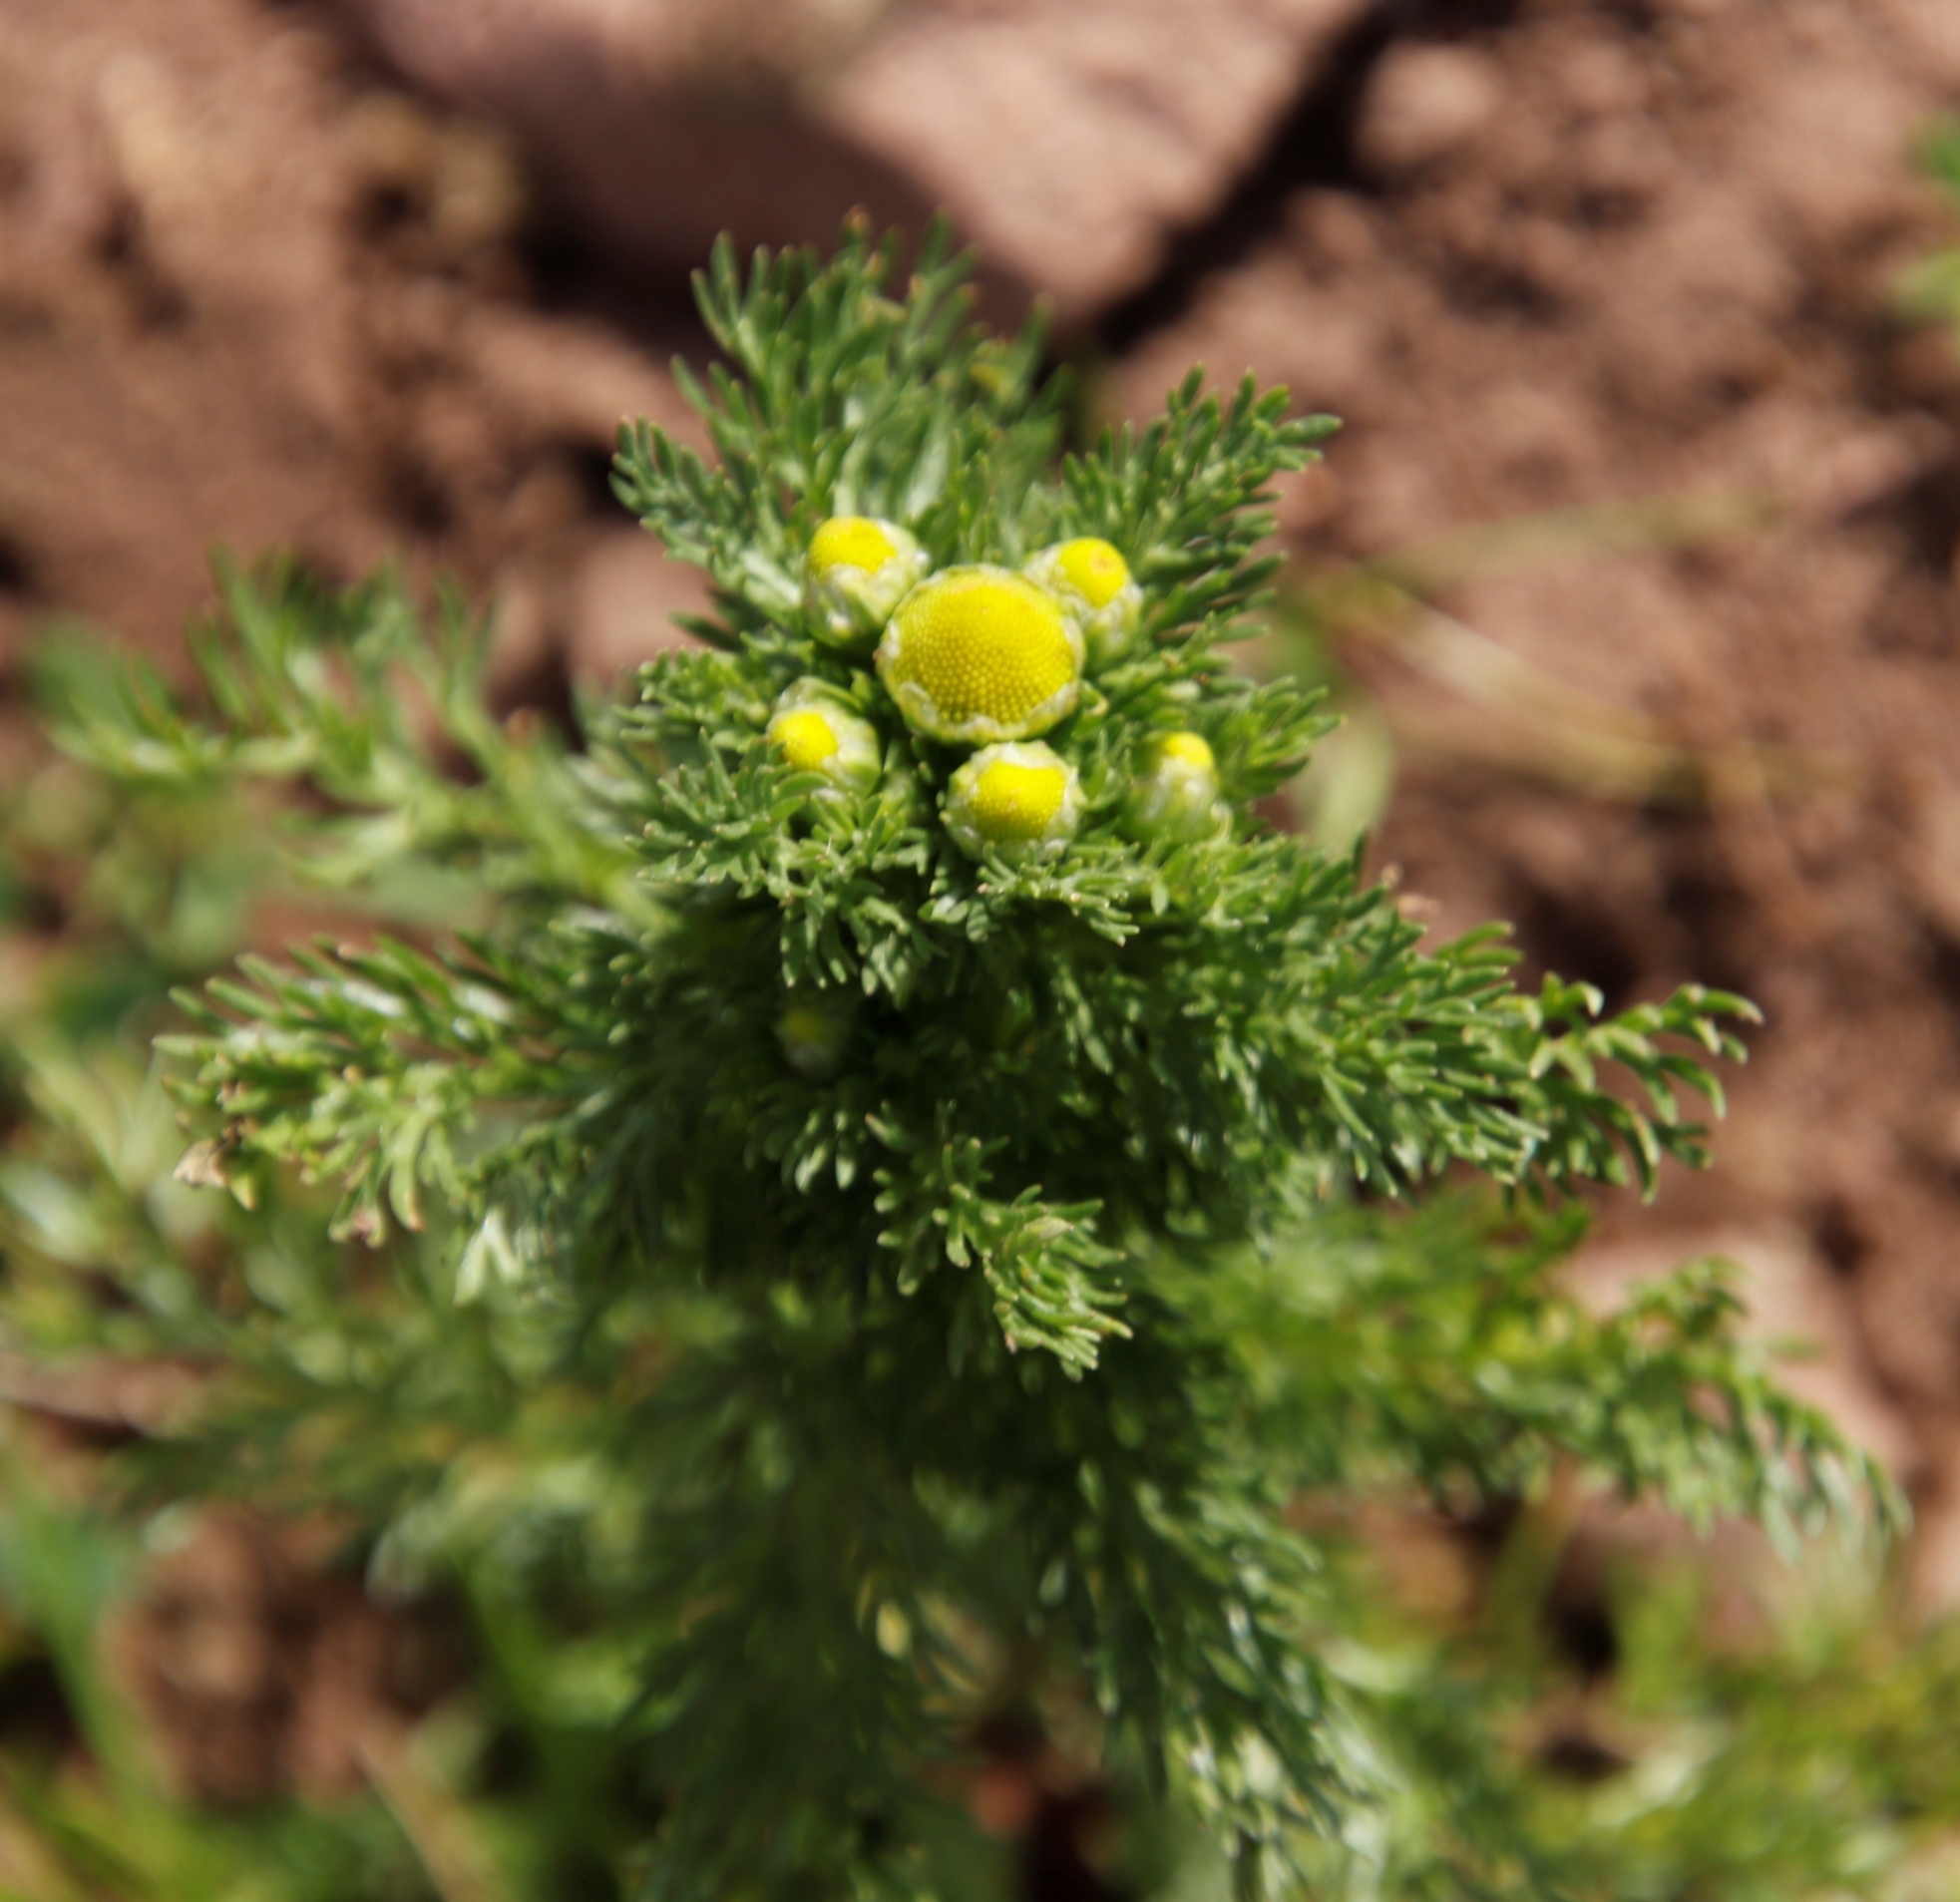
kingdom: Plantae
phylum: Tracheophyta
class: Magnoliopsida
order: Asterales
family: Asteraceae
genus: Matricaria
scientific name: Matricaria discoidea
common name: Disc mayweed
